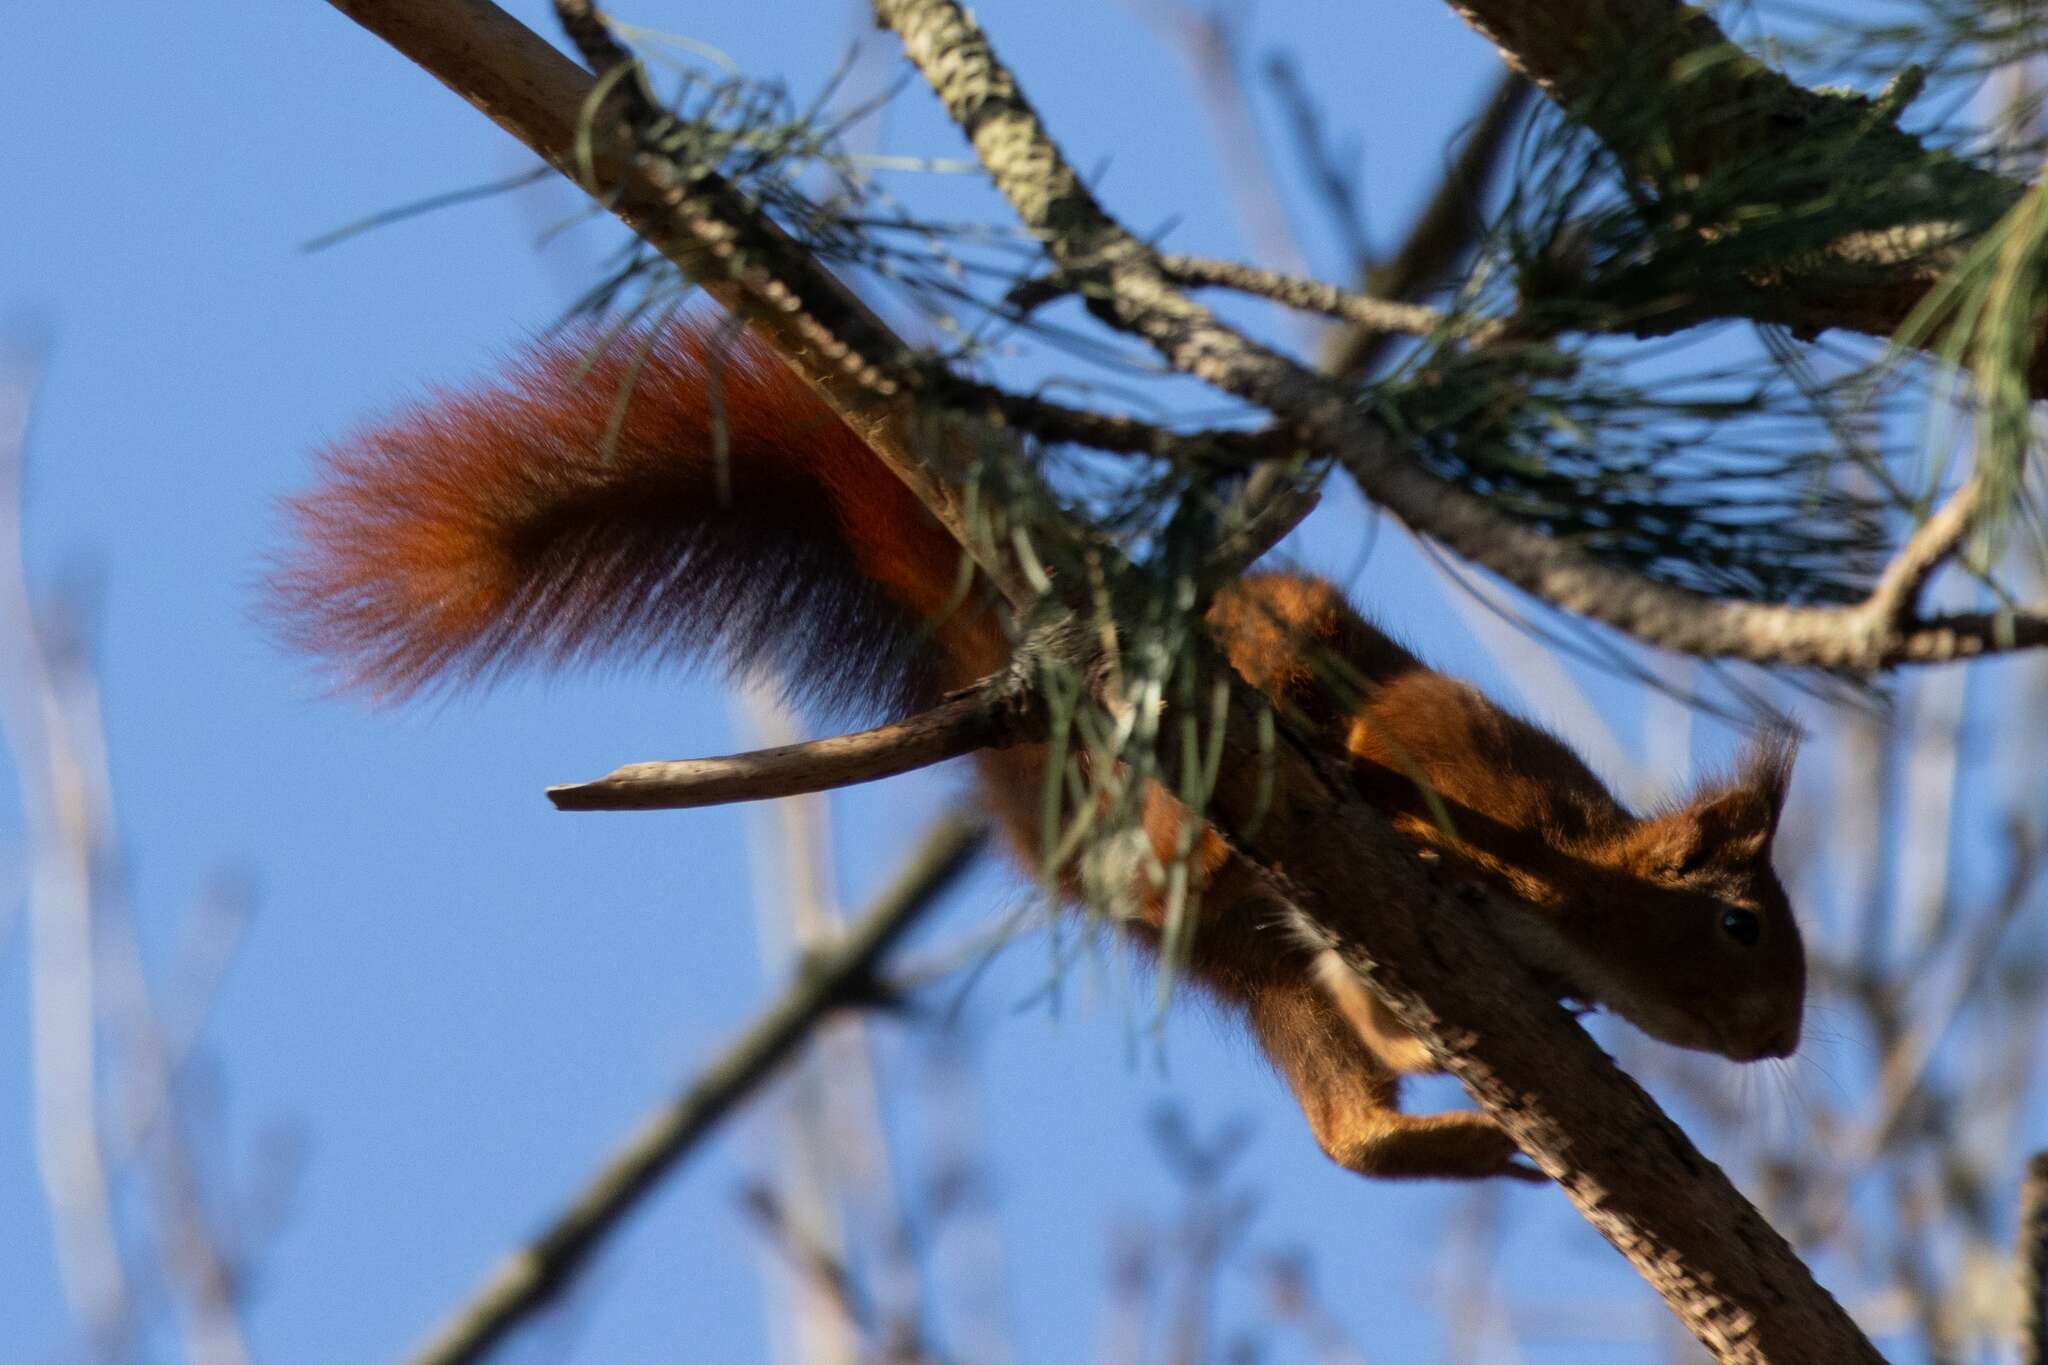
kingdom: Animalia
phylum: Chordata
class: Mammalia
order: Rodentia
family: Sciuridae
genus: Sciurus
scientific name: Sciurus vulgaris
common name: Eurasian red squirrel
